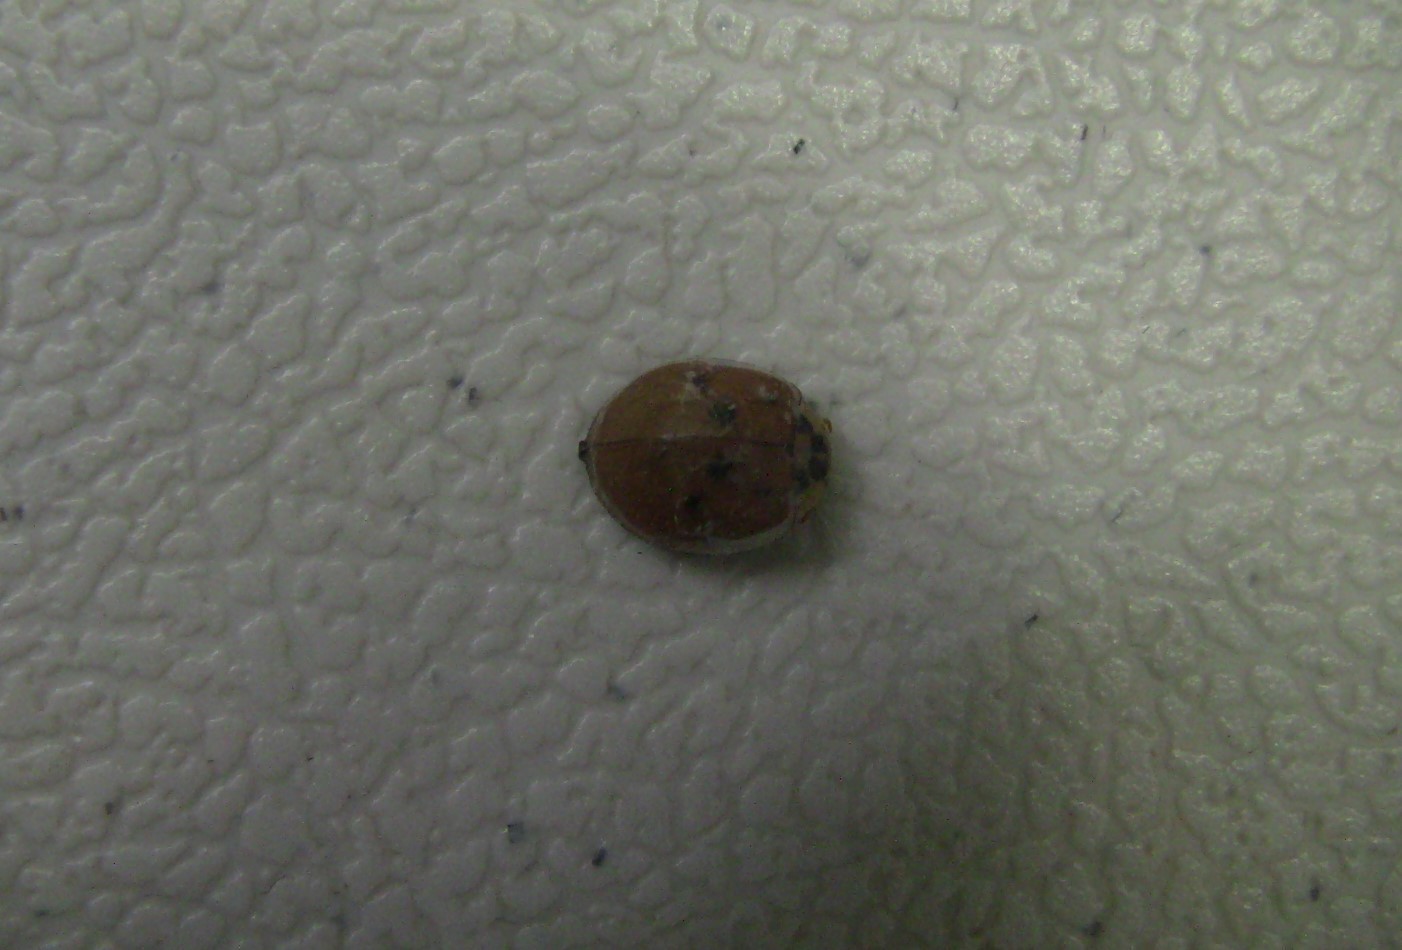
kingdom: Animalia
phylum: Arthropoda
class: Insecta
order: Coleoptera
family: Coccinellidae
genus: Harmonia
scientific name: Harmonia axyridis
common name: Harlequin ladybird
